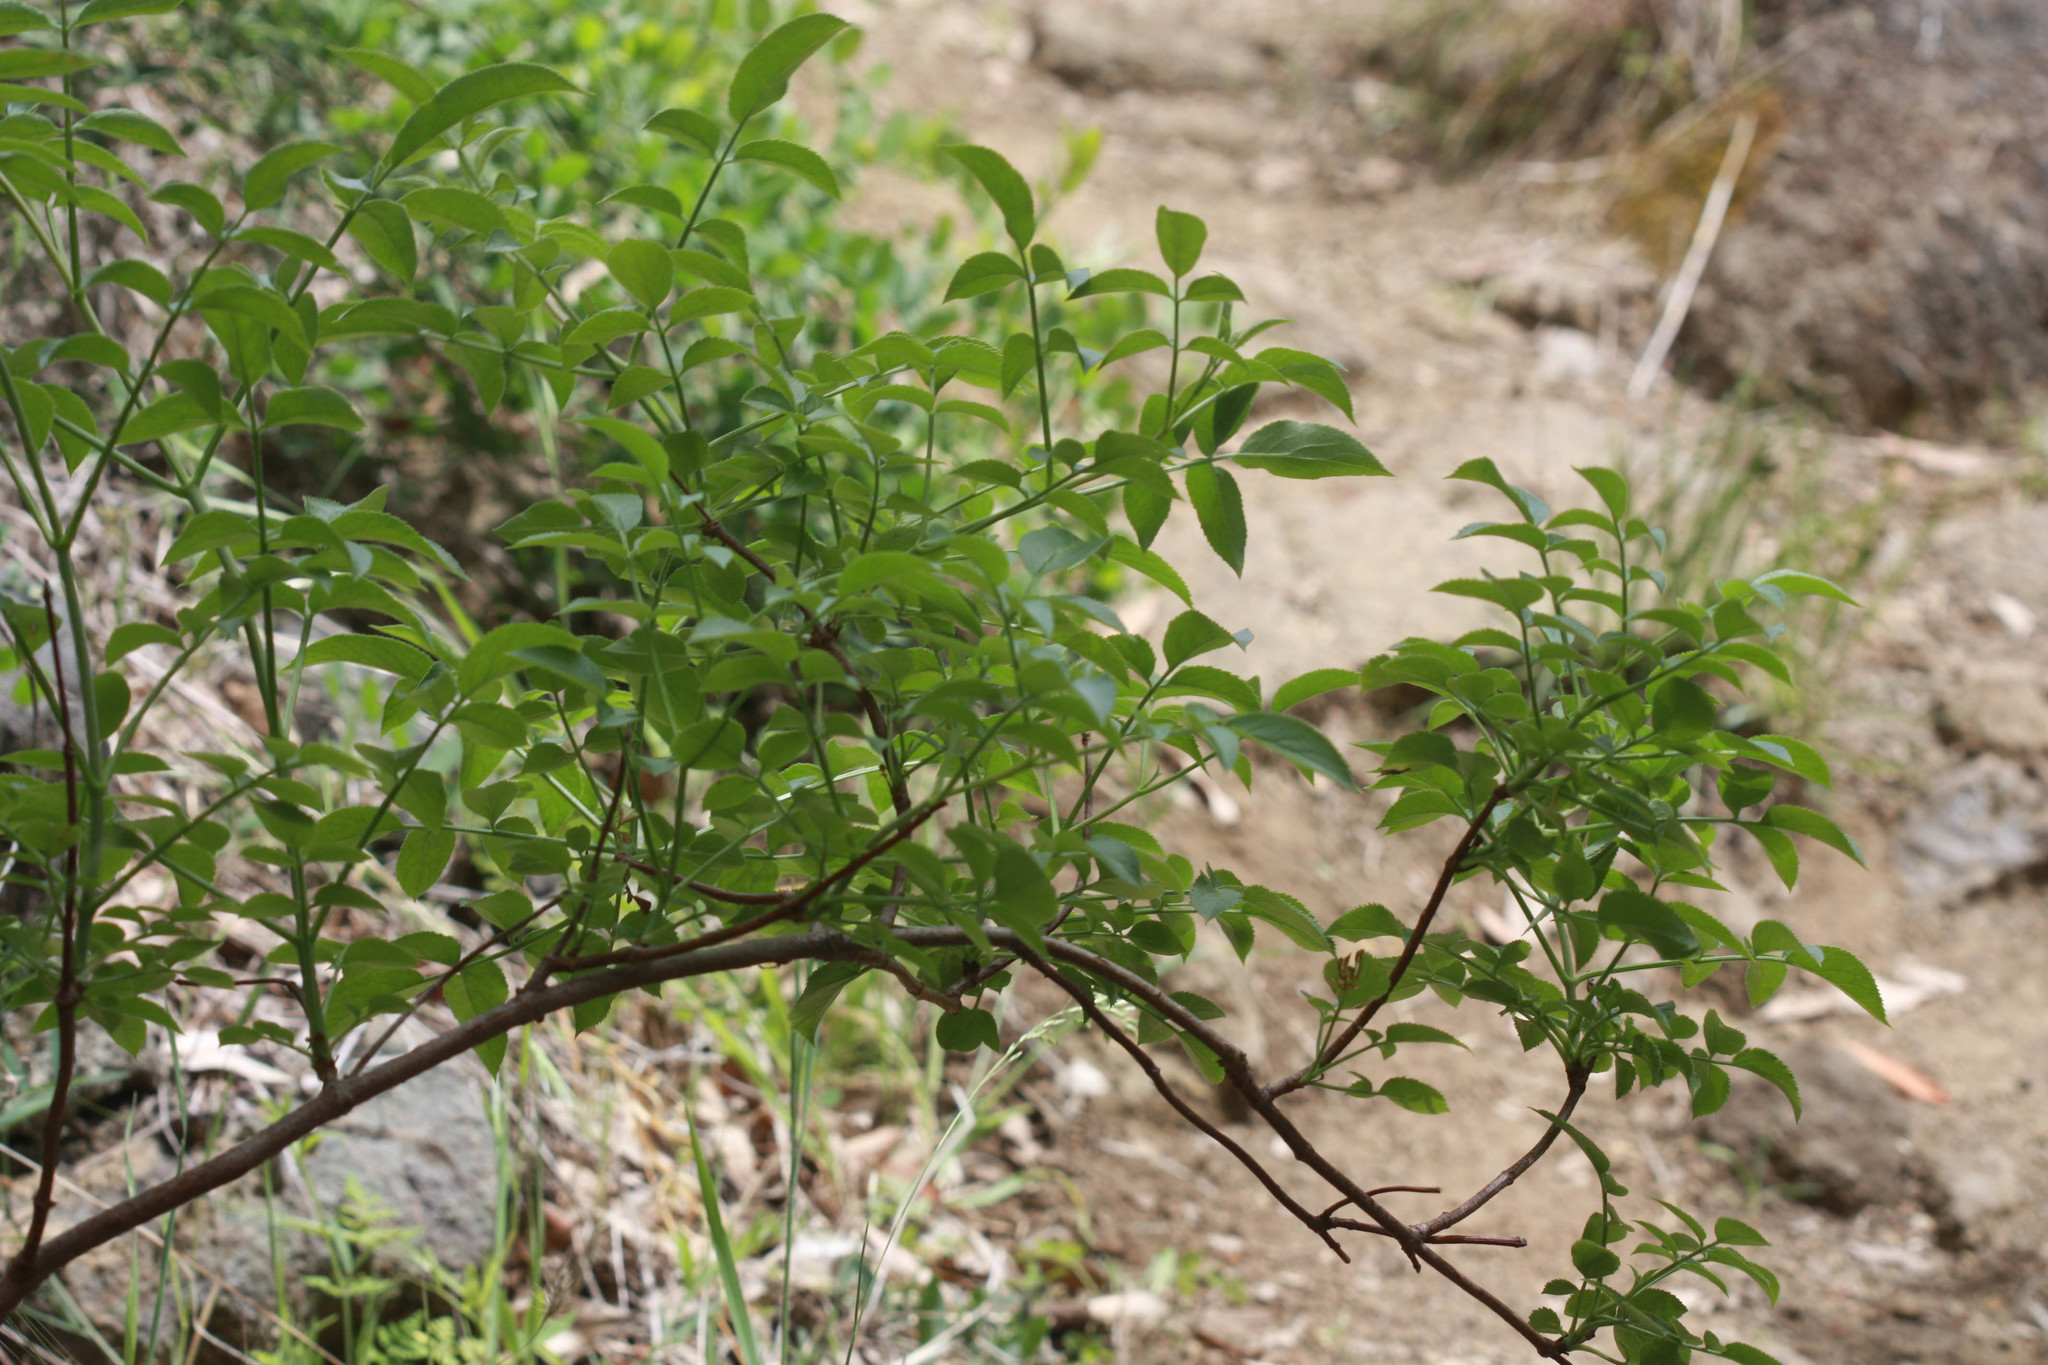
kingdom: Plantae
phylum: Tracheophyta
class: Magnoliopsida
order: Dipsacales
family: Viburnaceae
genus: Sambucus
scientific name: Sambucus cerulea
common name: Blue elder
